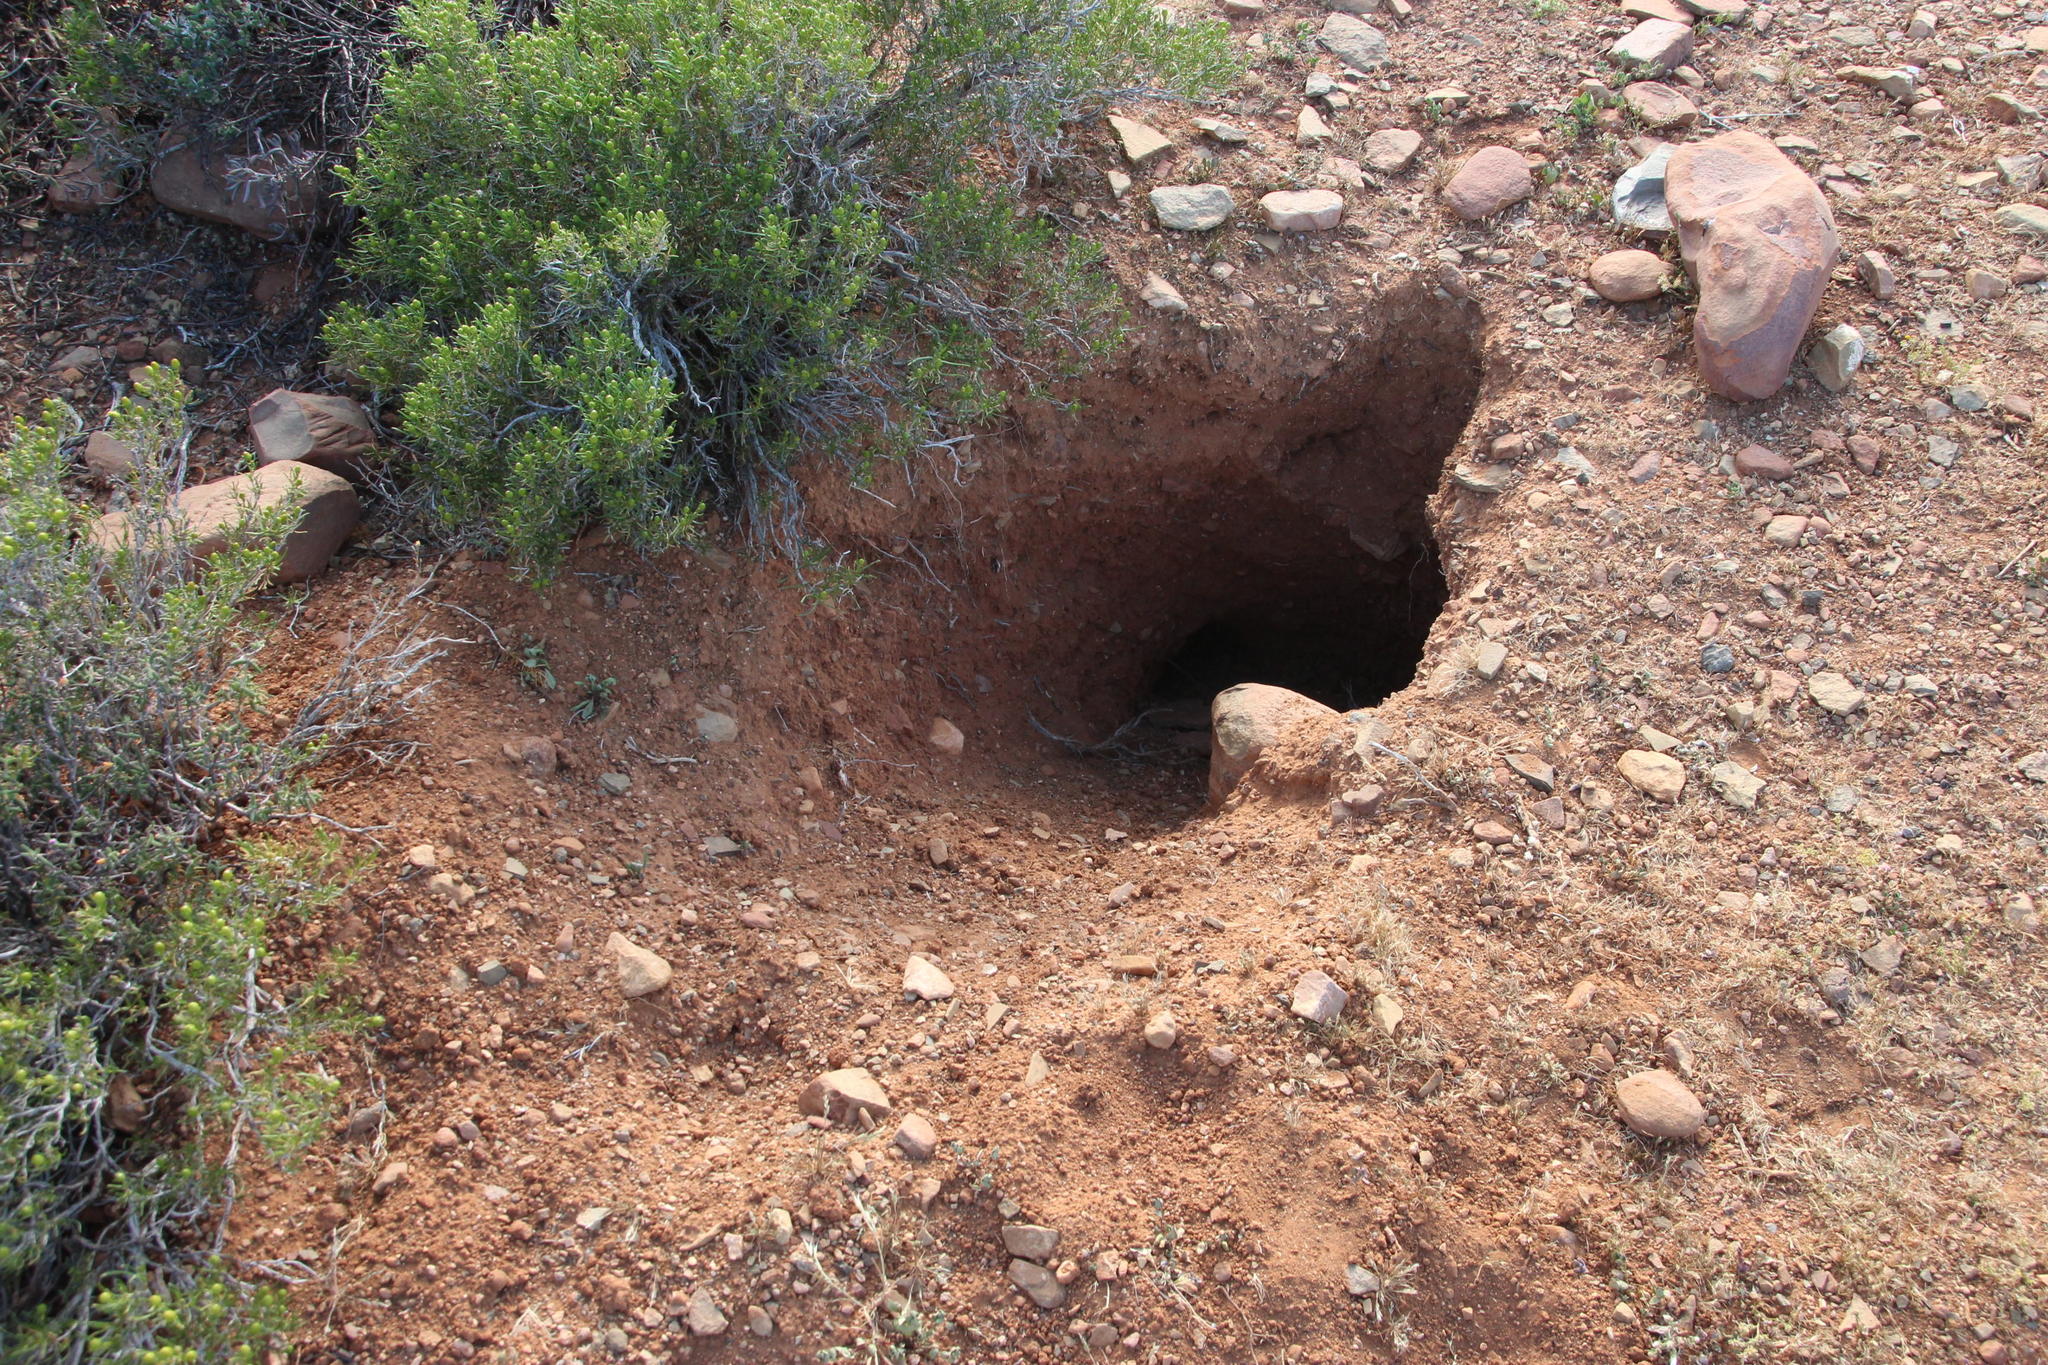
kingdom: Animalia
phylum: Chordata
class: Mammalia
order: Tubulidentata
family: Orycteropodidae
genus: Orycteropus
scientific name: Orycteropus afer
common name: Aardvark
